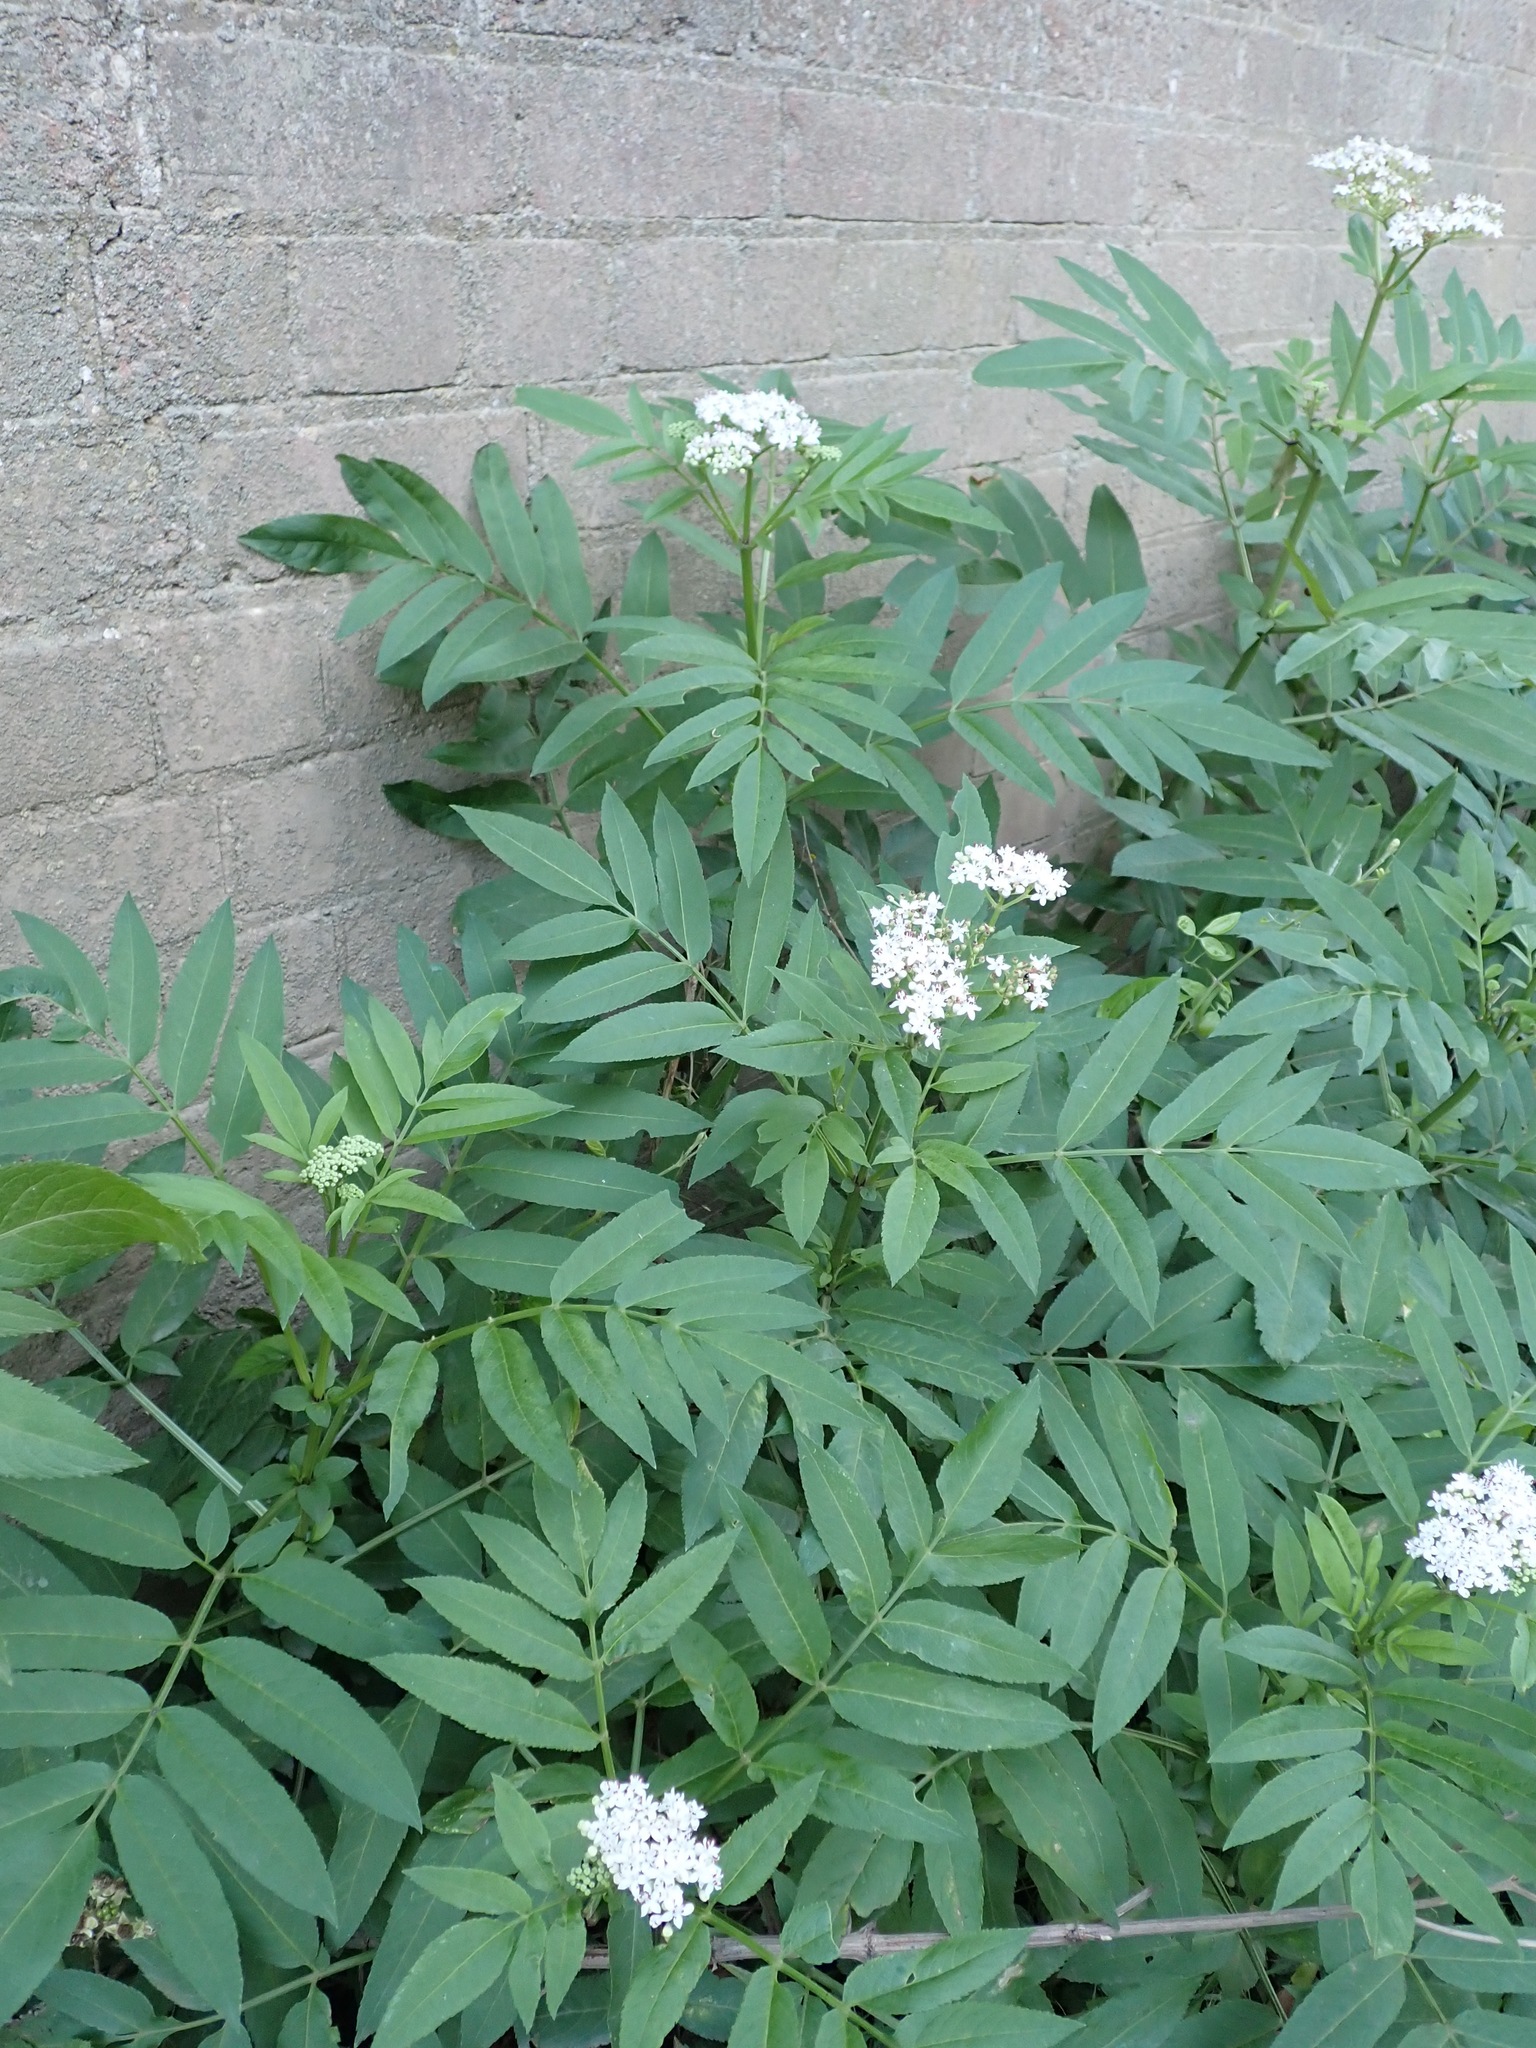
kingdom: Plantae
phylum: Tracheophyta
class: Magnoliopsida
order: Dipsacales
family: Viburnaceae
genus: Sambucus
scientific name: Sambucus ebulus
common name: Dwarf elder
